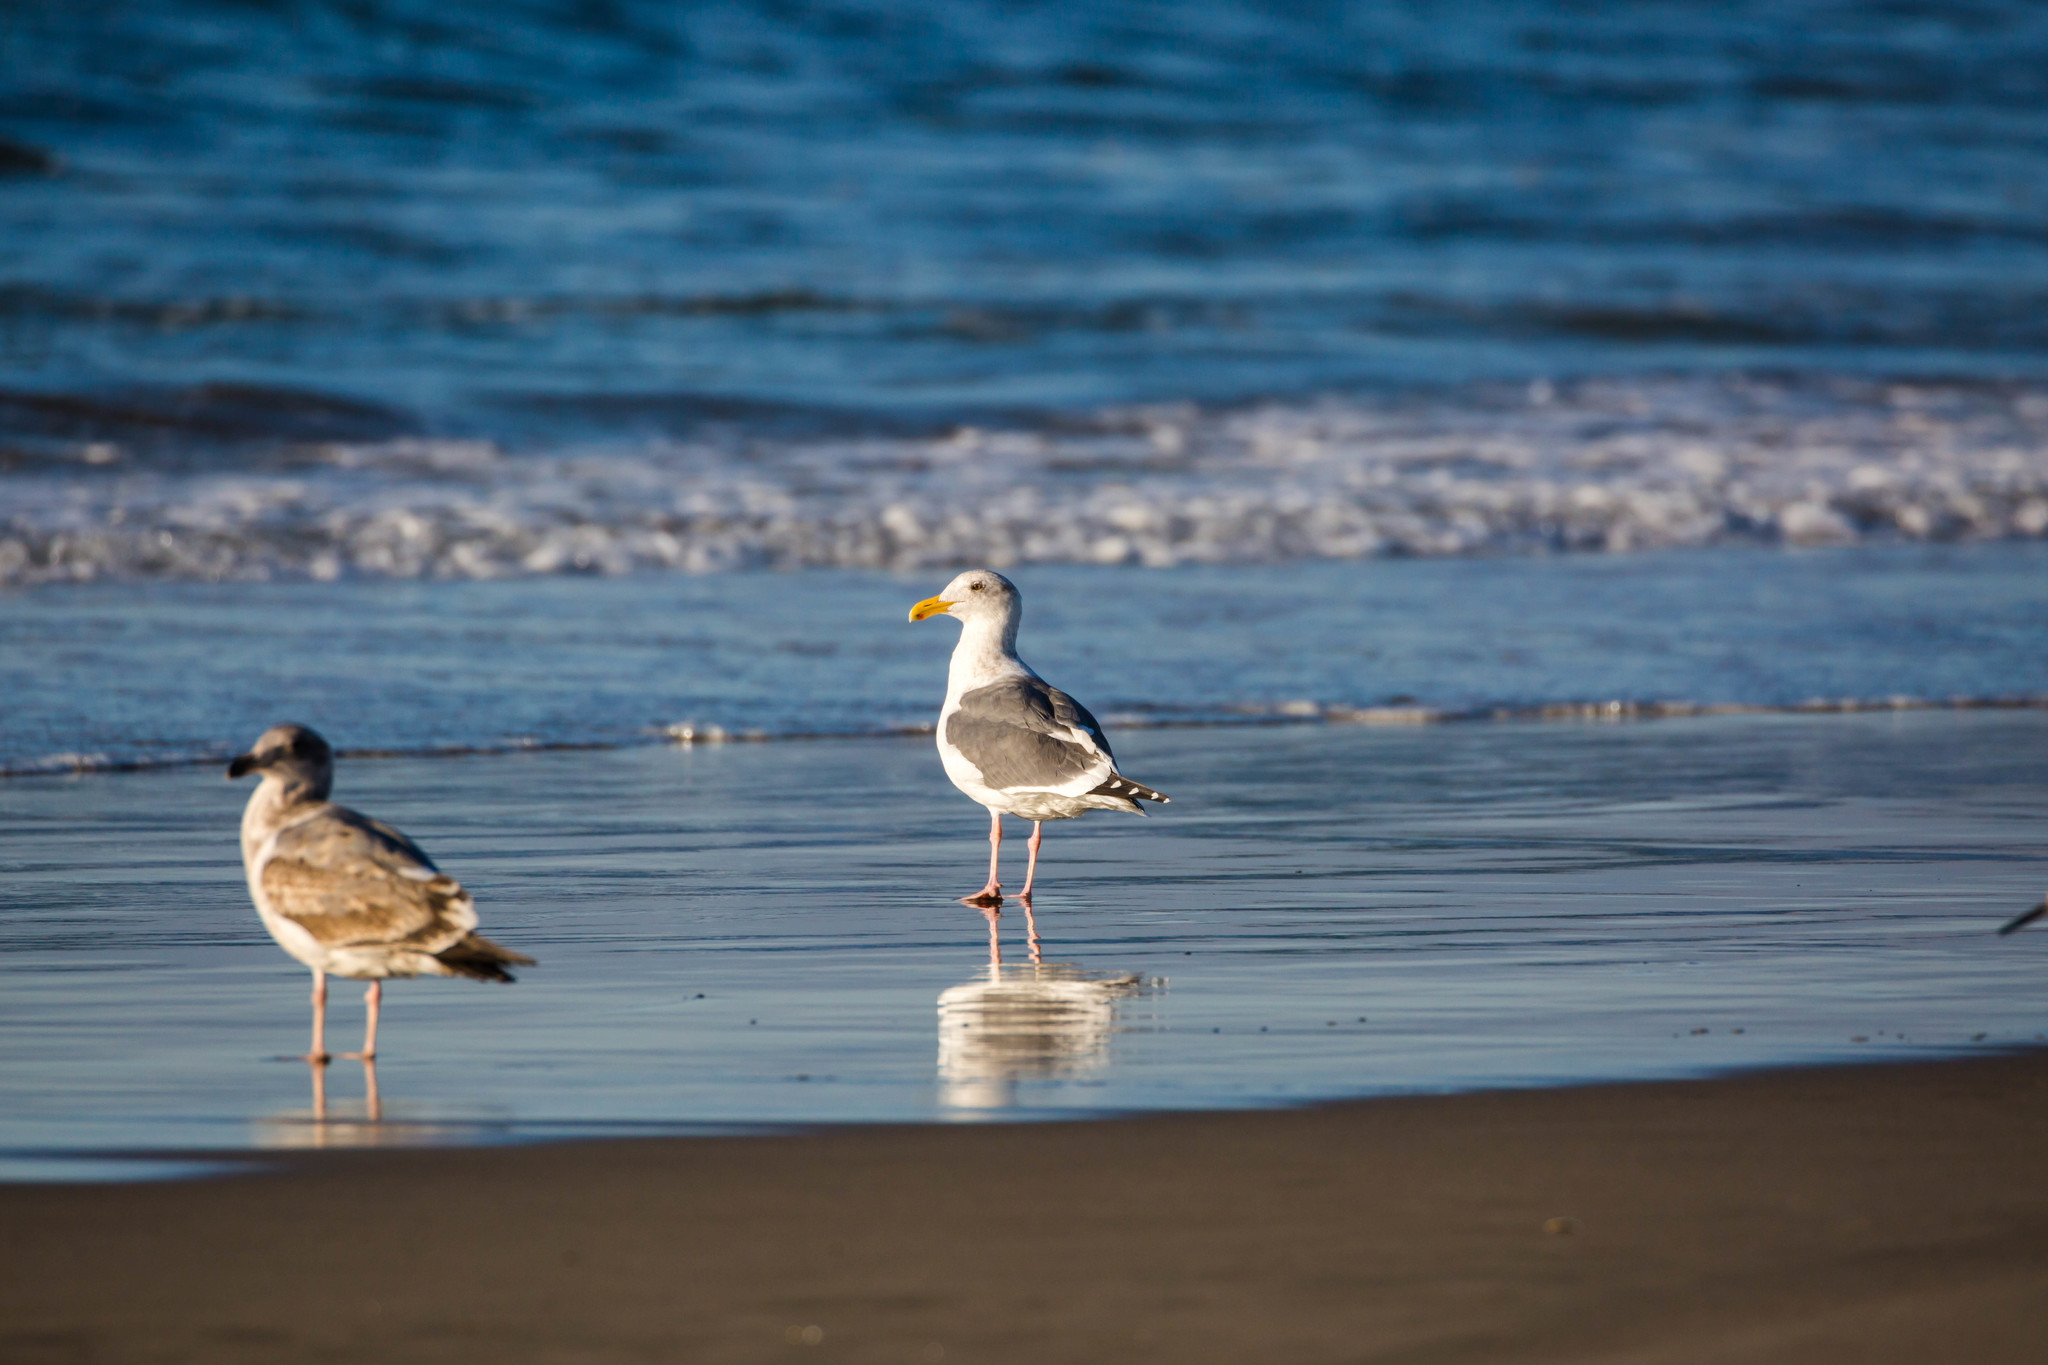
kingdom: Animalia
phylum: Chordata
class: Aves
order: Charadriiformes
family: Laridae
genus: Larus
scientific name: Larus occidentalis
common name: Western gull
